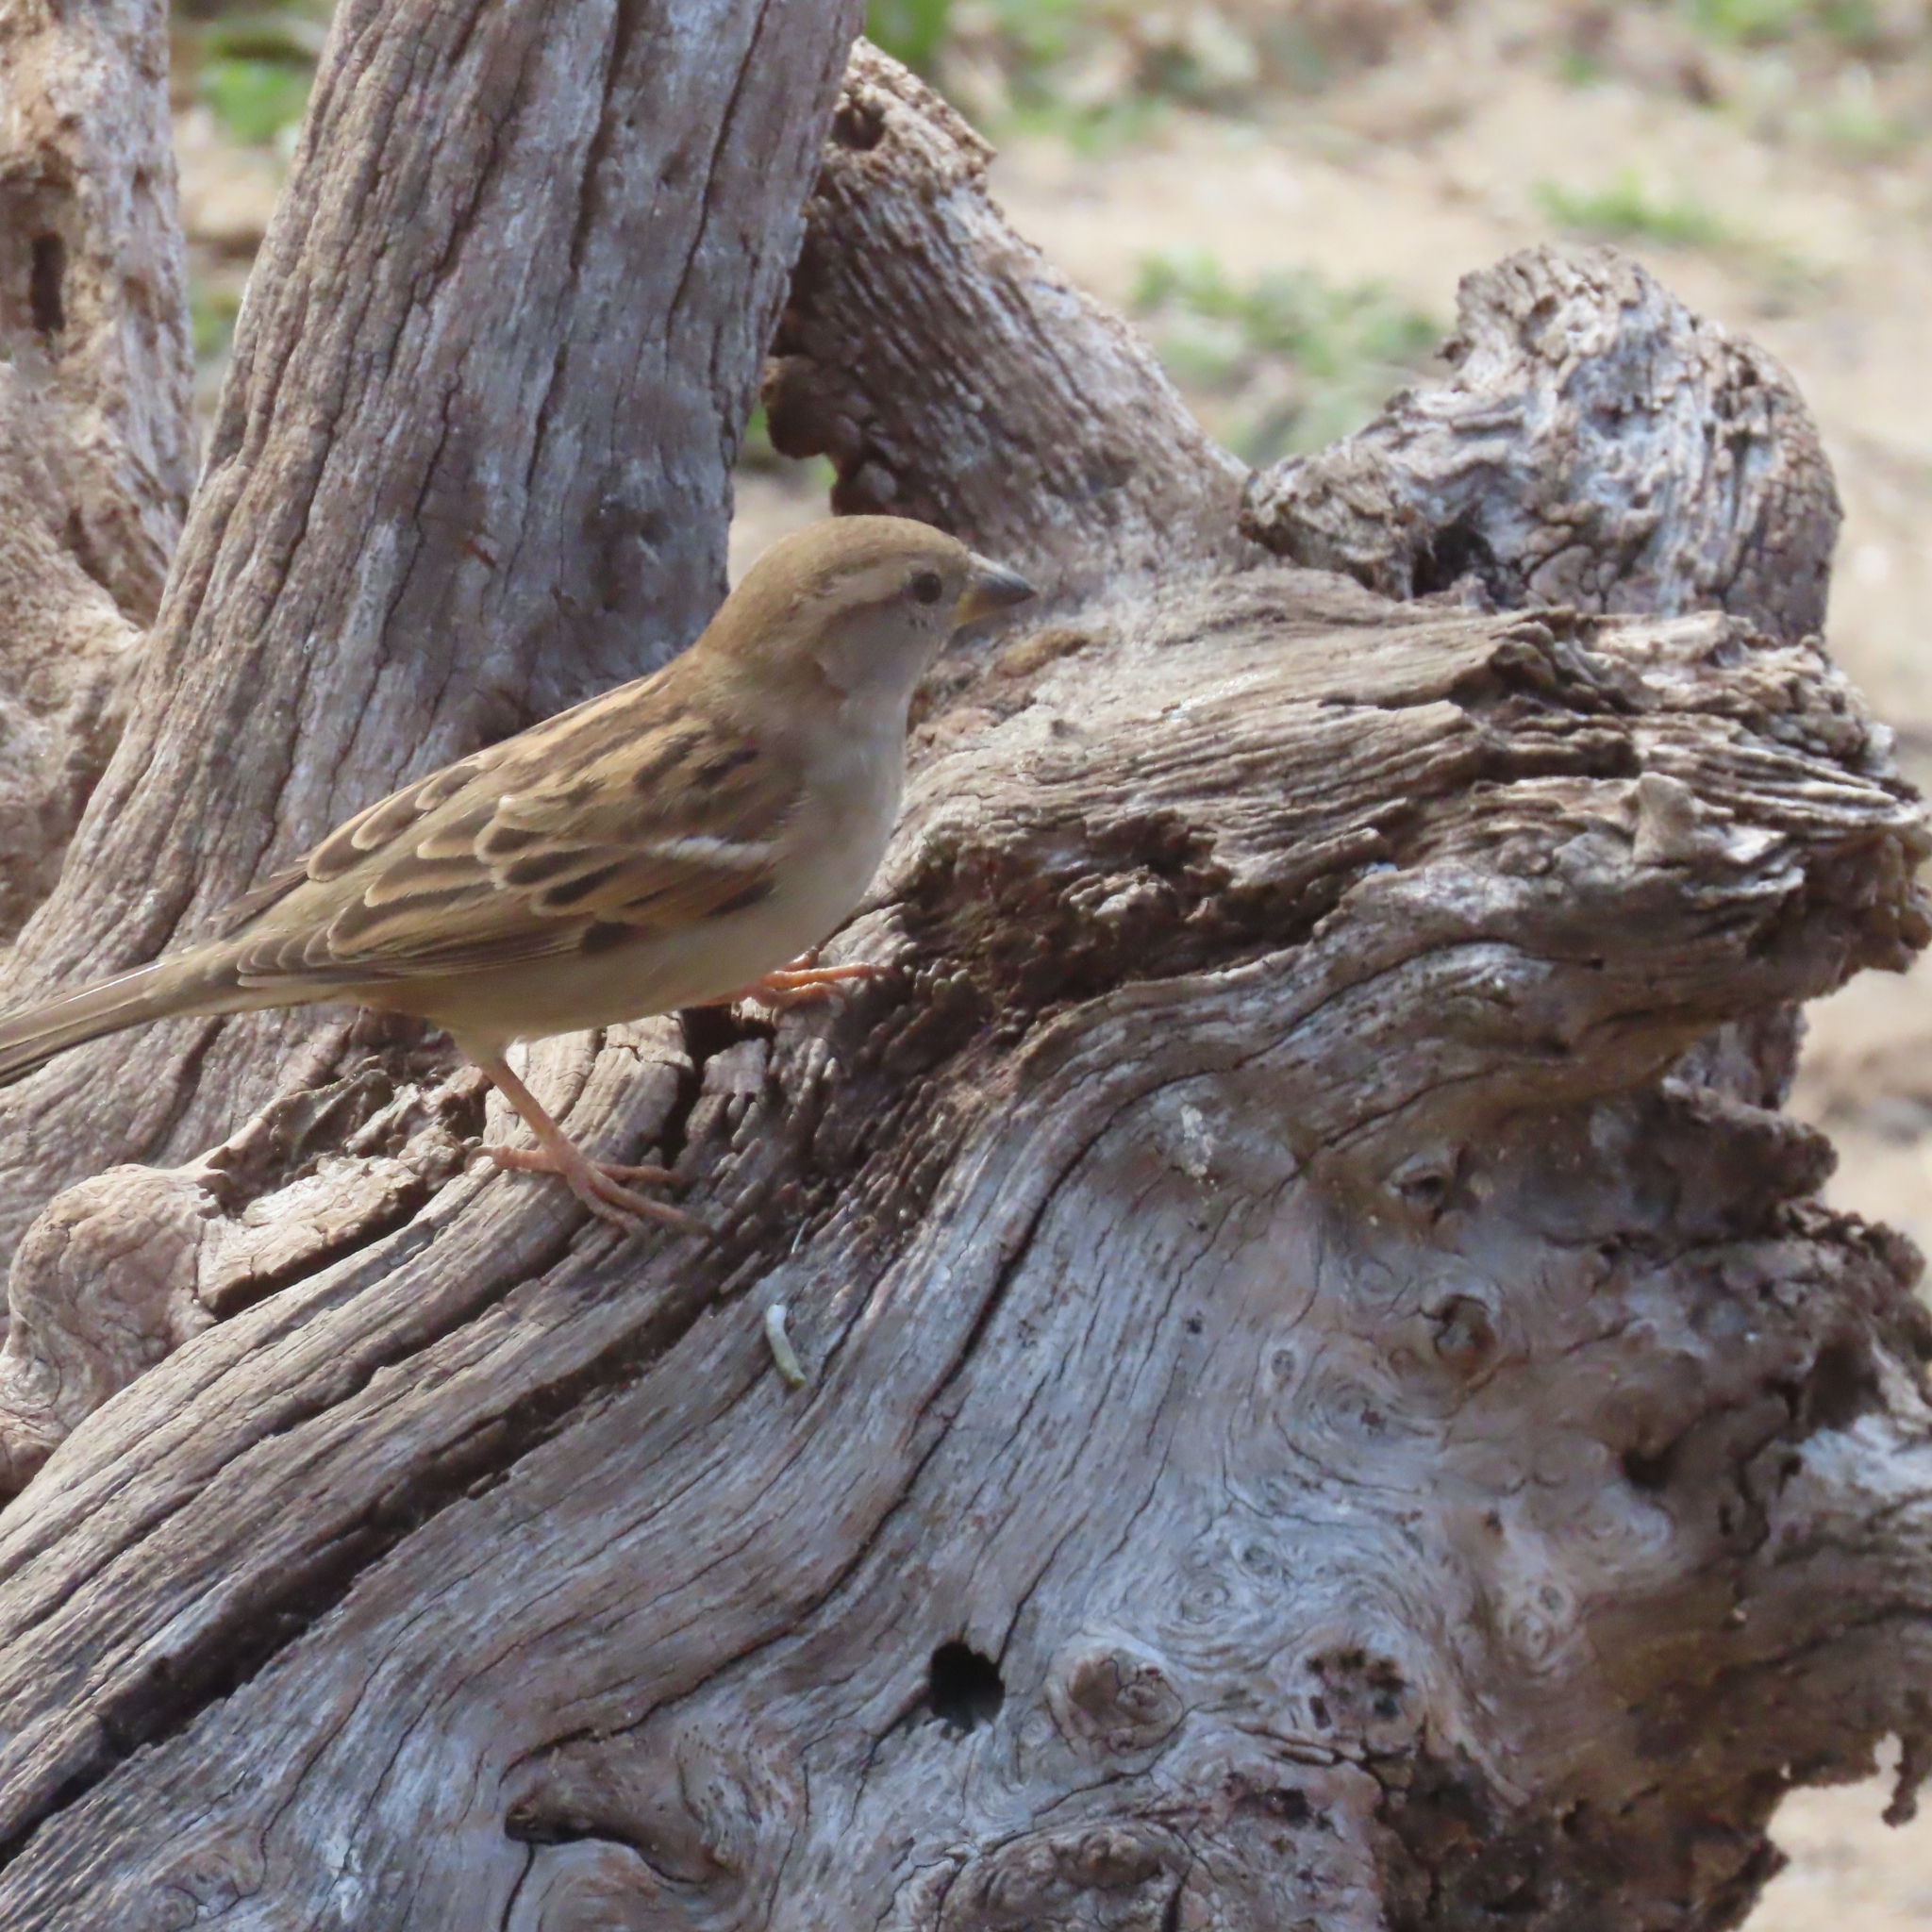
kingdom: Animalia
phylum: Chordata
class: Aves
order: Passeriformes
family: Passeridae
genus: Passer
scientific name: Passer domesticus
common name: House sparrow
